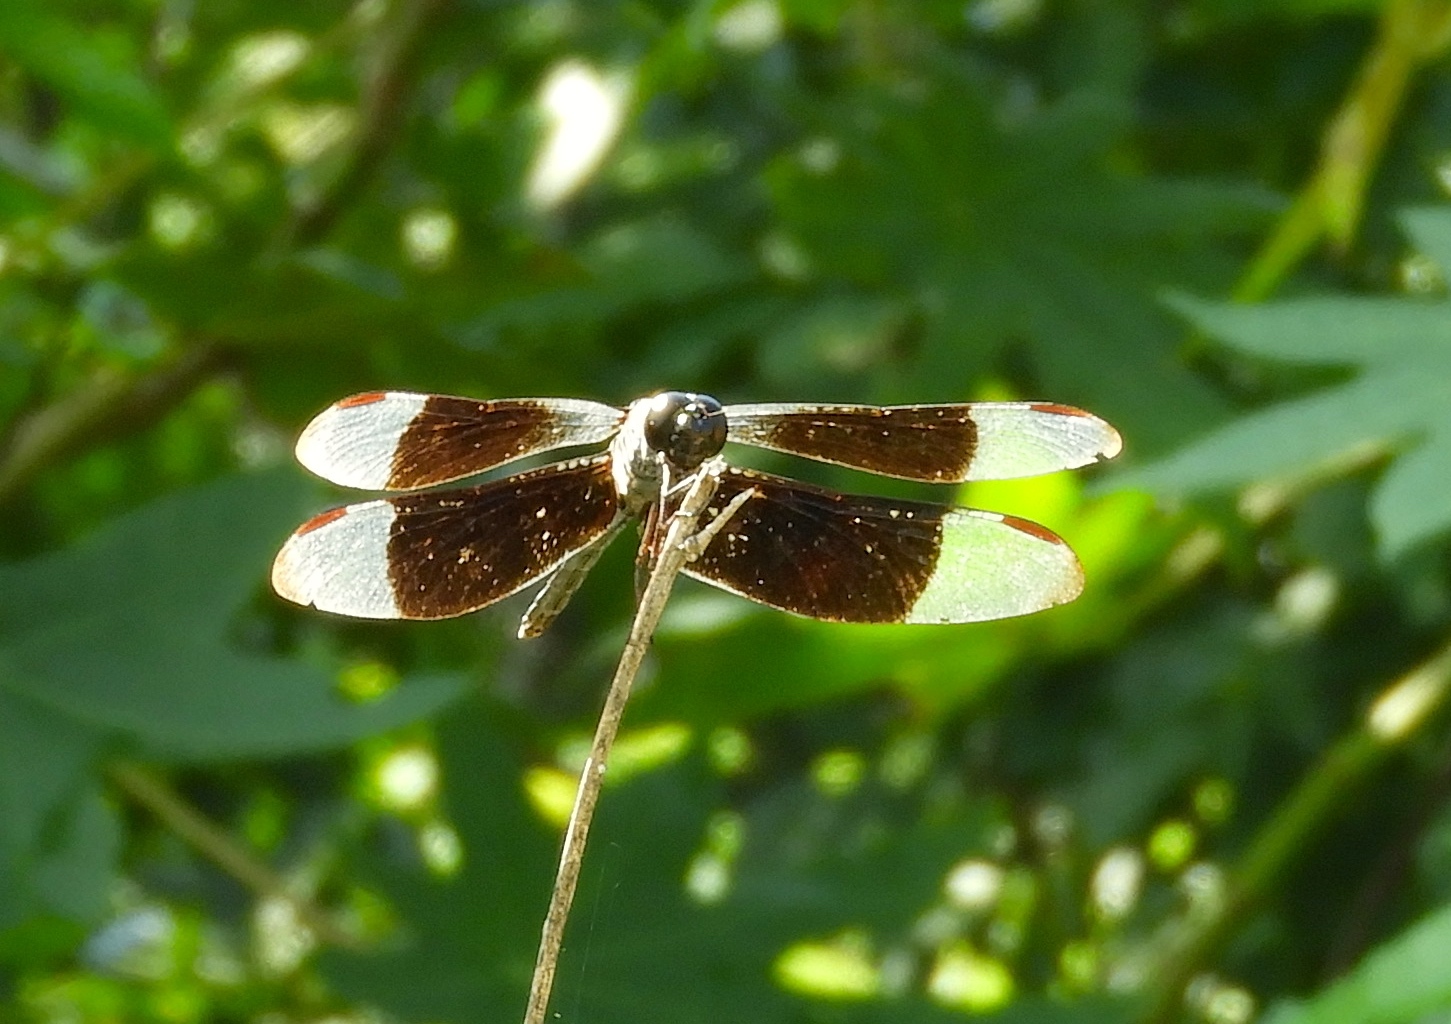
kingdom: Animalia
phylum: Arthropoda
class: Insecta
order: Odonata
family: Libellulidae
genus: Erythrodiplax
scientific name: Erythrodiplax funerea
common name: Black-winged dragonlet
